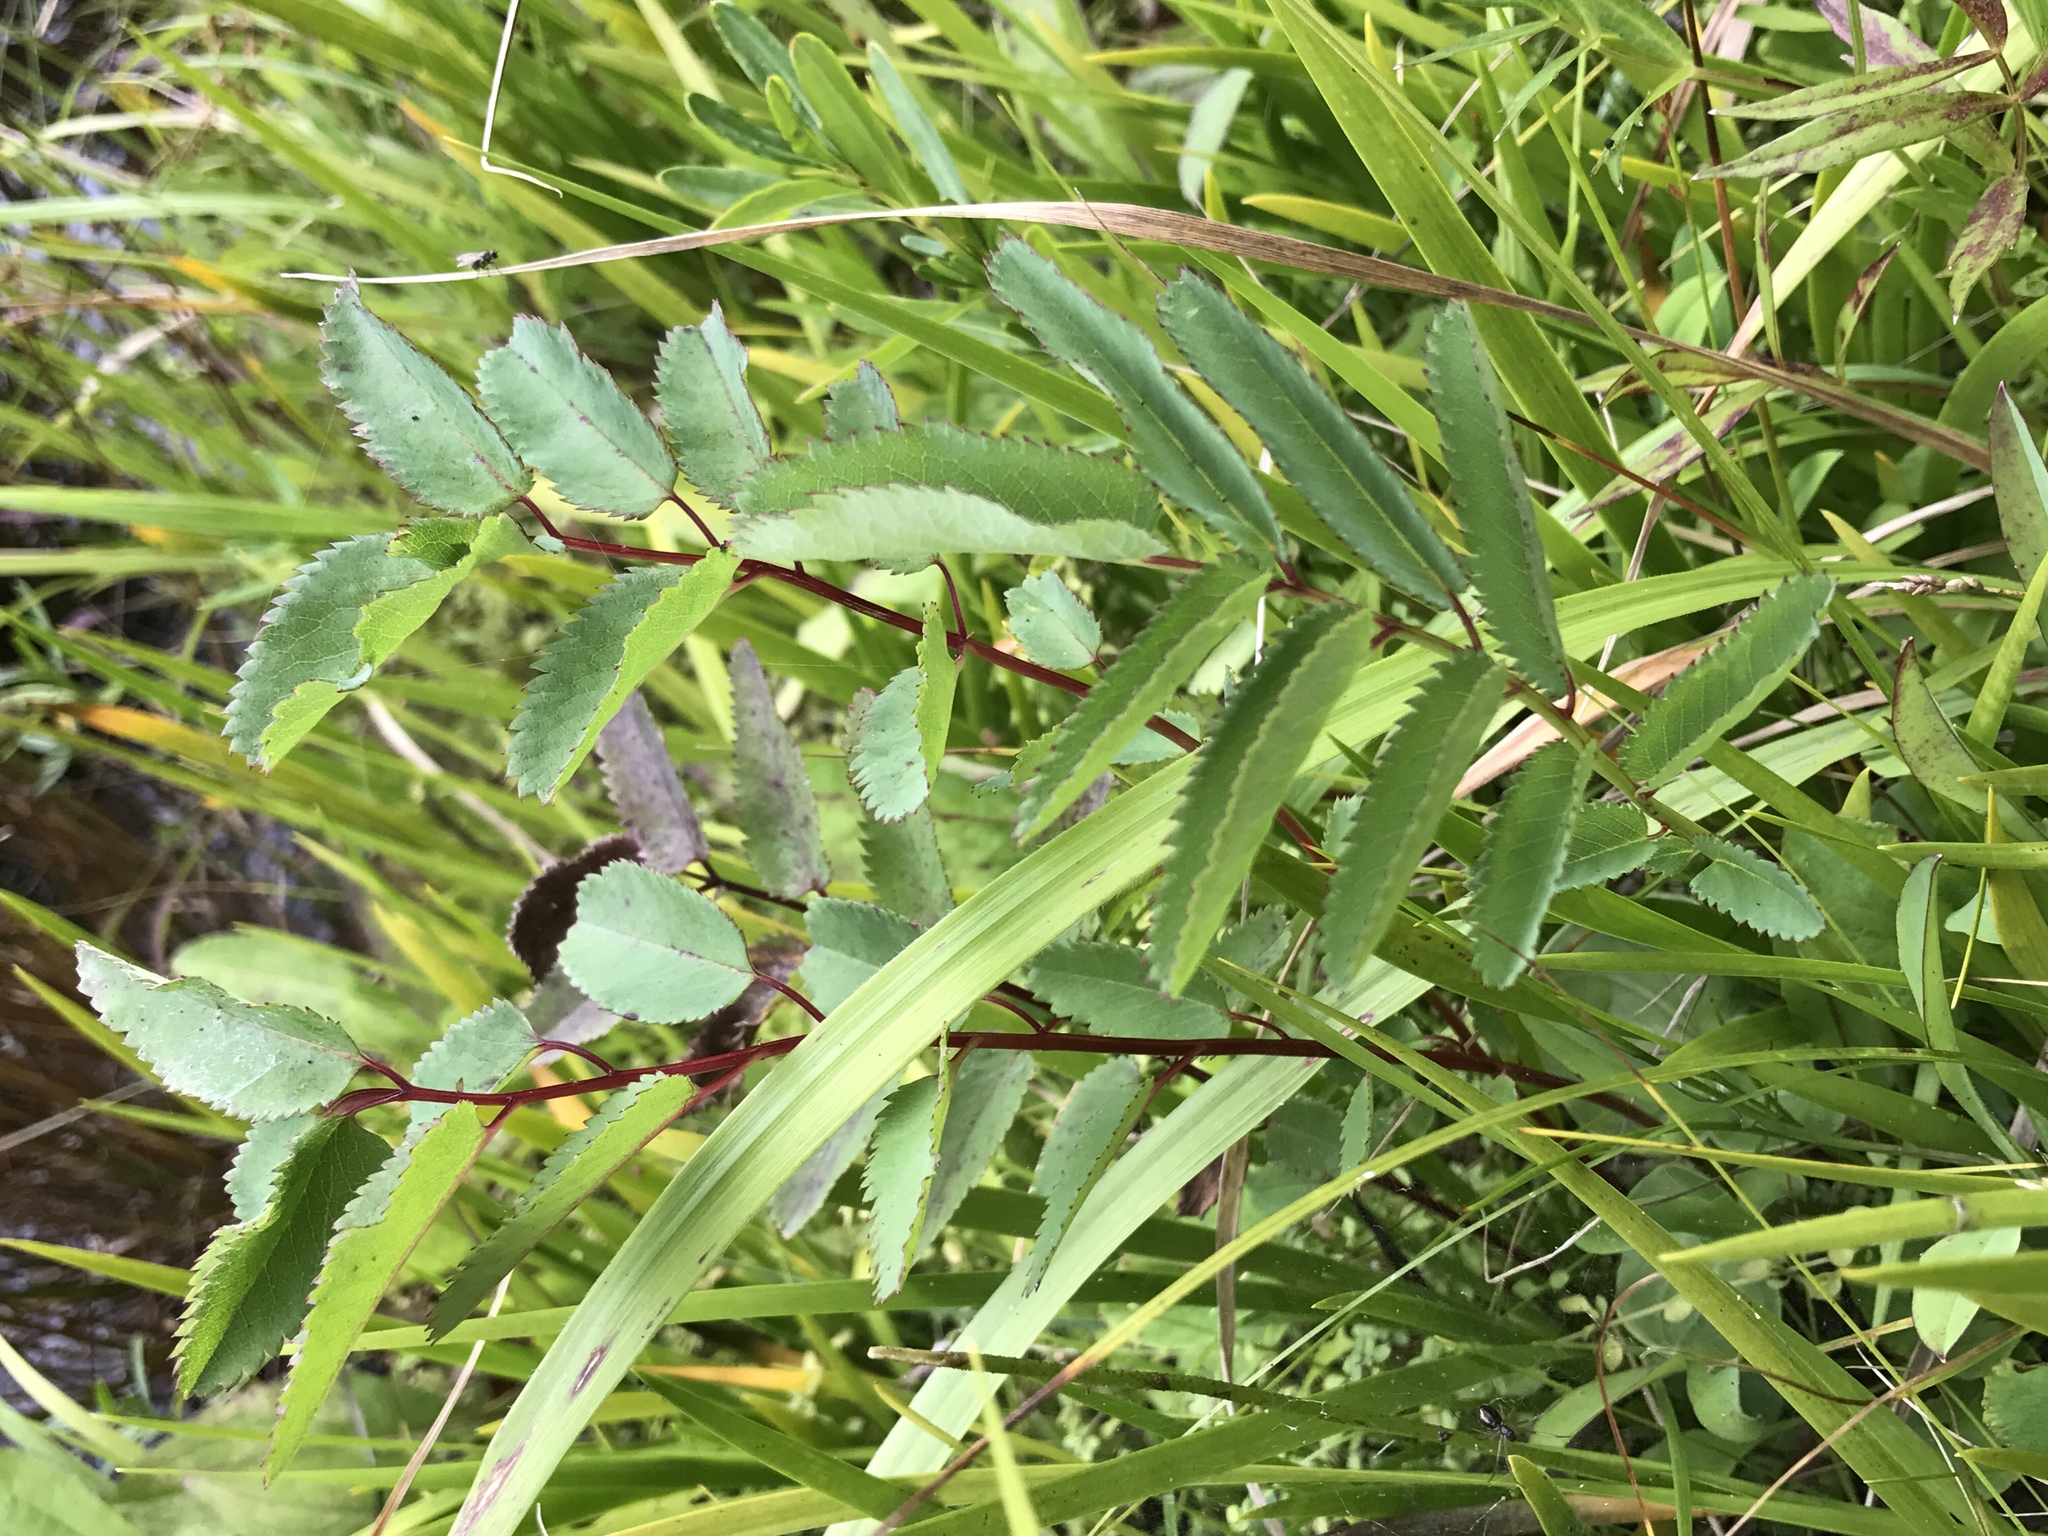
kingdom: Plantae
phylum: Tracheophyta
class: Magnoliopsida
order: Rosales
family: Rosaceae
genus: Sanguisorba
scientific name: Sanguisorba canadensis
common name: White burnet
